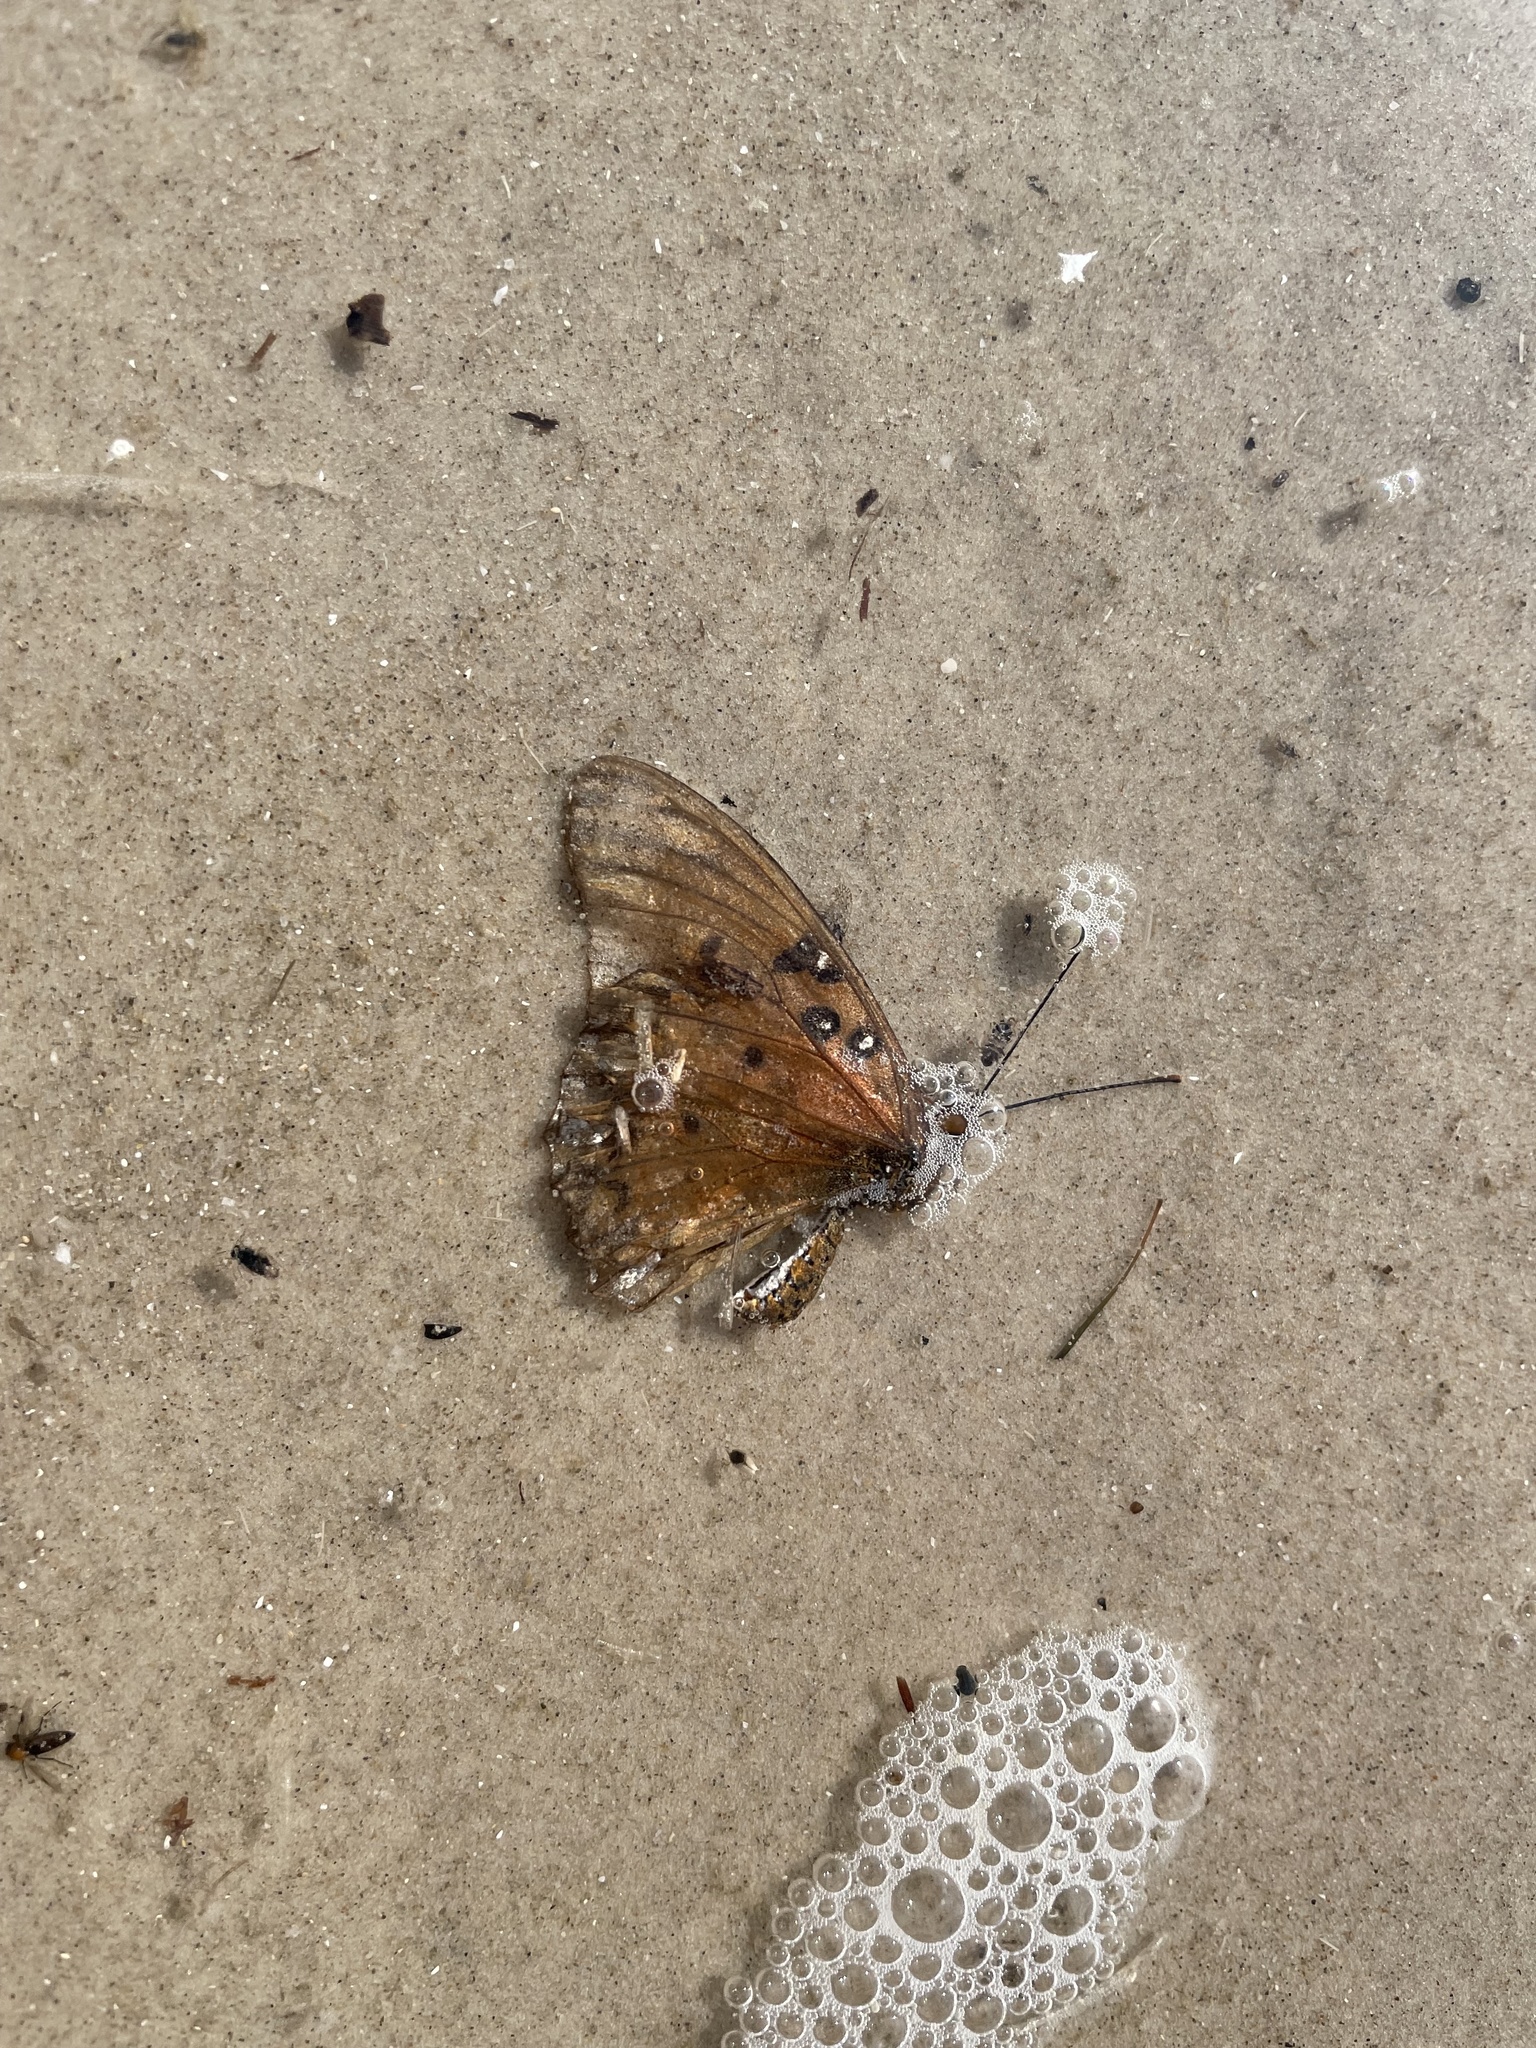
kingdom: Animalia
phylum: Arthropoda
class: Insecta
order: Lepidoptera
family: Nymphalidae
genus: Dione
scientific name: Dione vanillae
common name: Gulf fritillary
